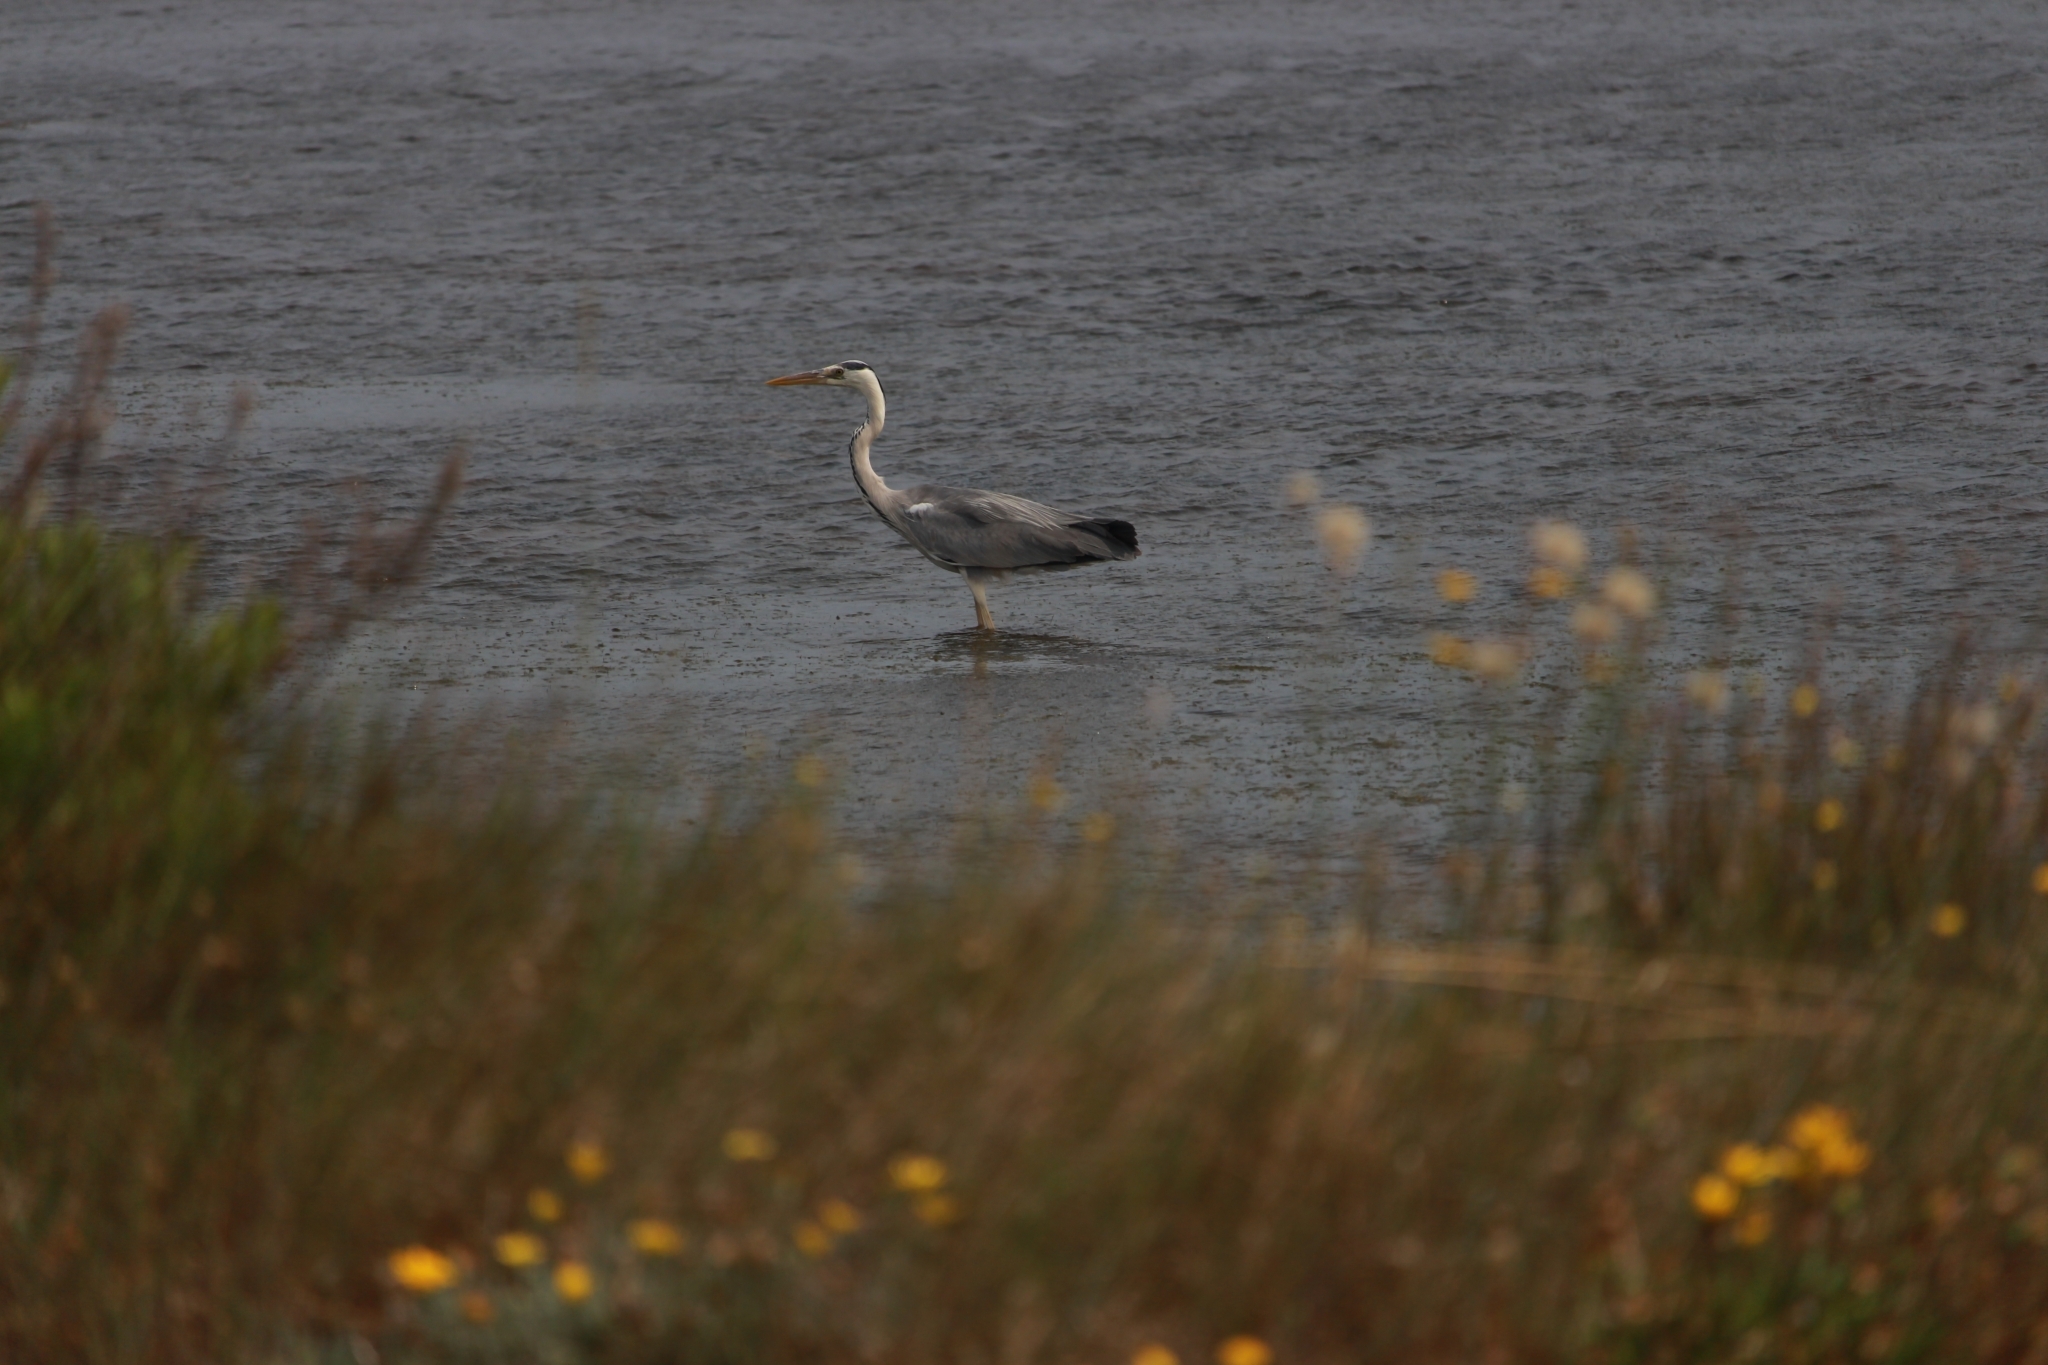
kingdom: Animalia
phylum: Chordata
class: Aves
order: Pelecaniformes
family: Ardeidae
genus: Ardea
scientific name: Ardea cinerea
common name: Grey heron
